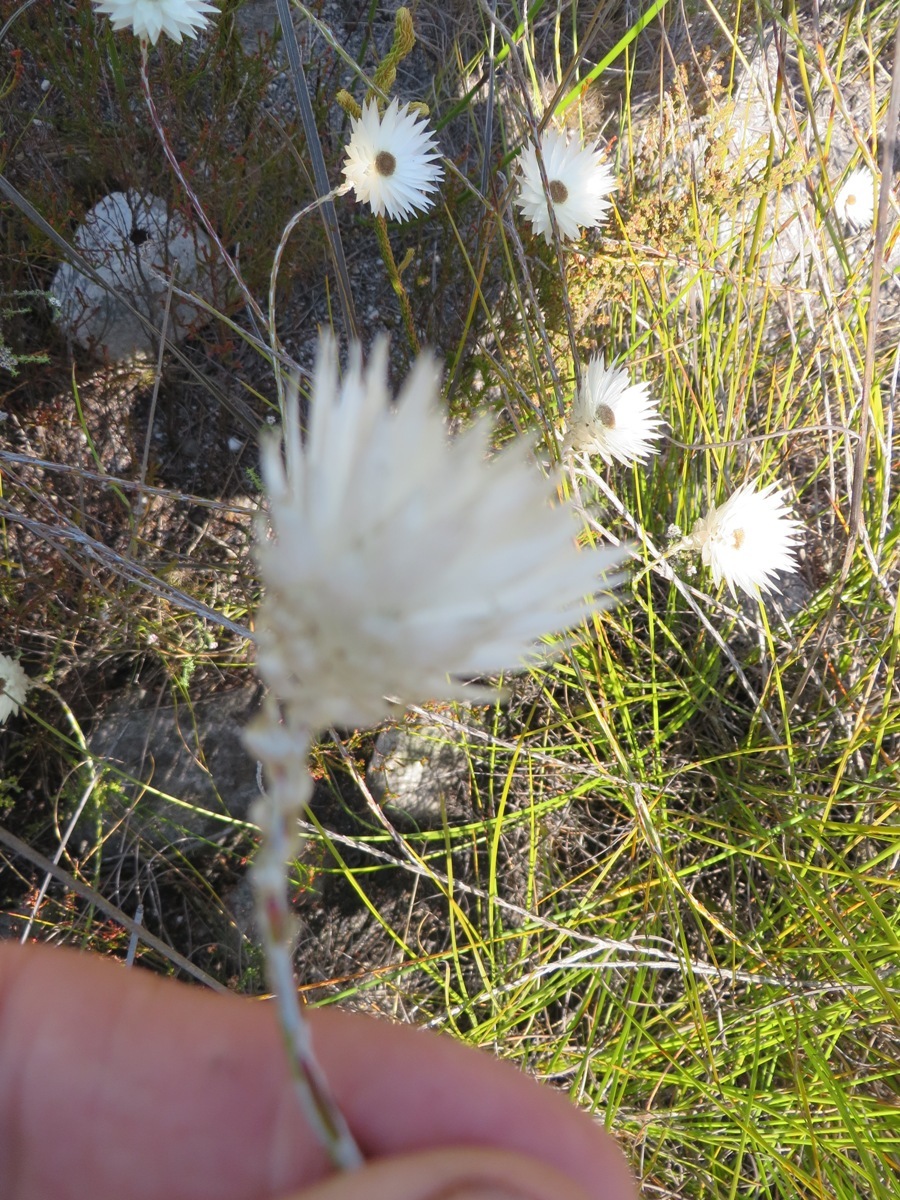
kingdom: Plantae
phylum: Tracheophyta
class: Magnoliopsida
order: Asterales
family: Asteraceae
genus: Edmondia
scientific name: Edmondia sesamoides
